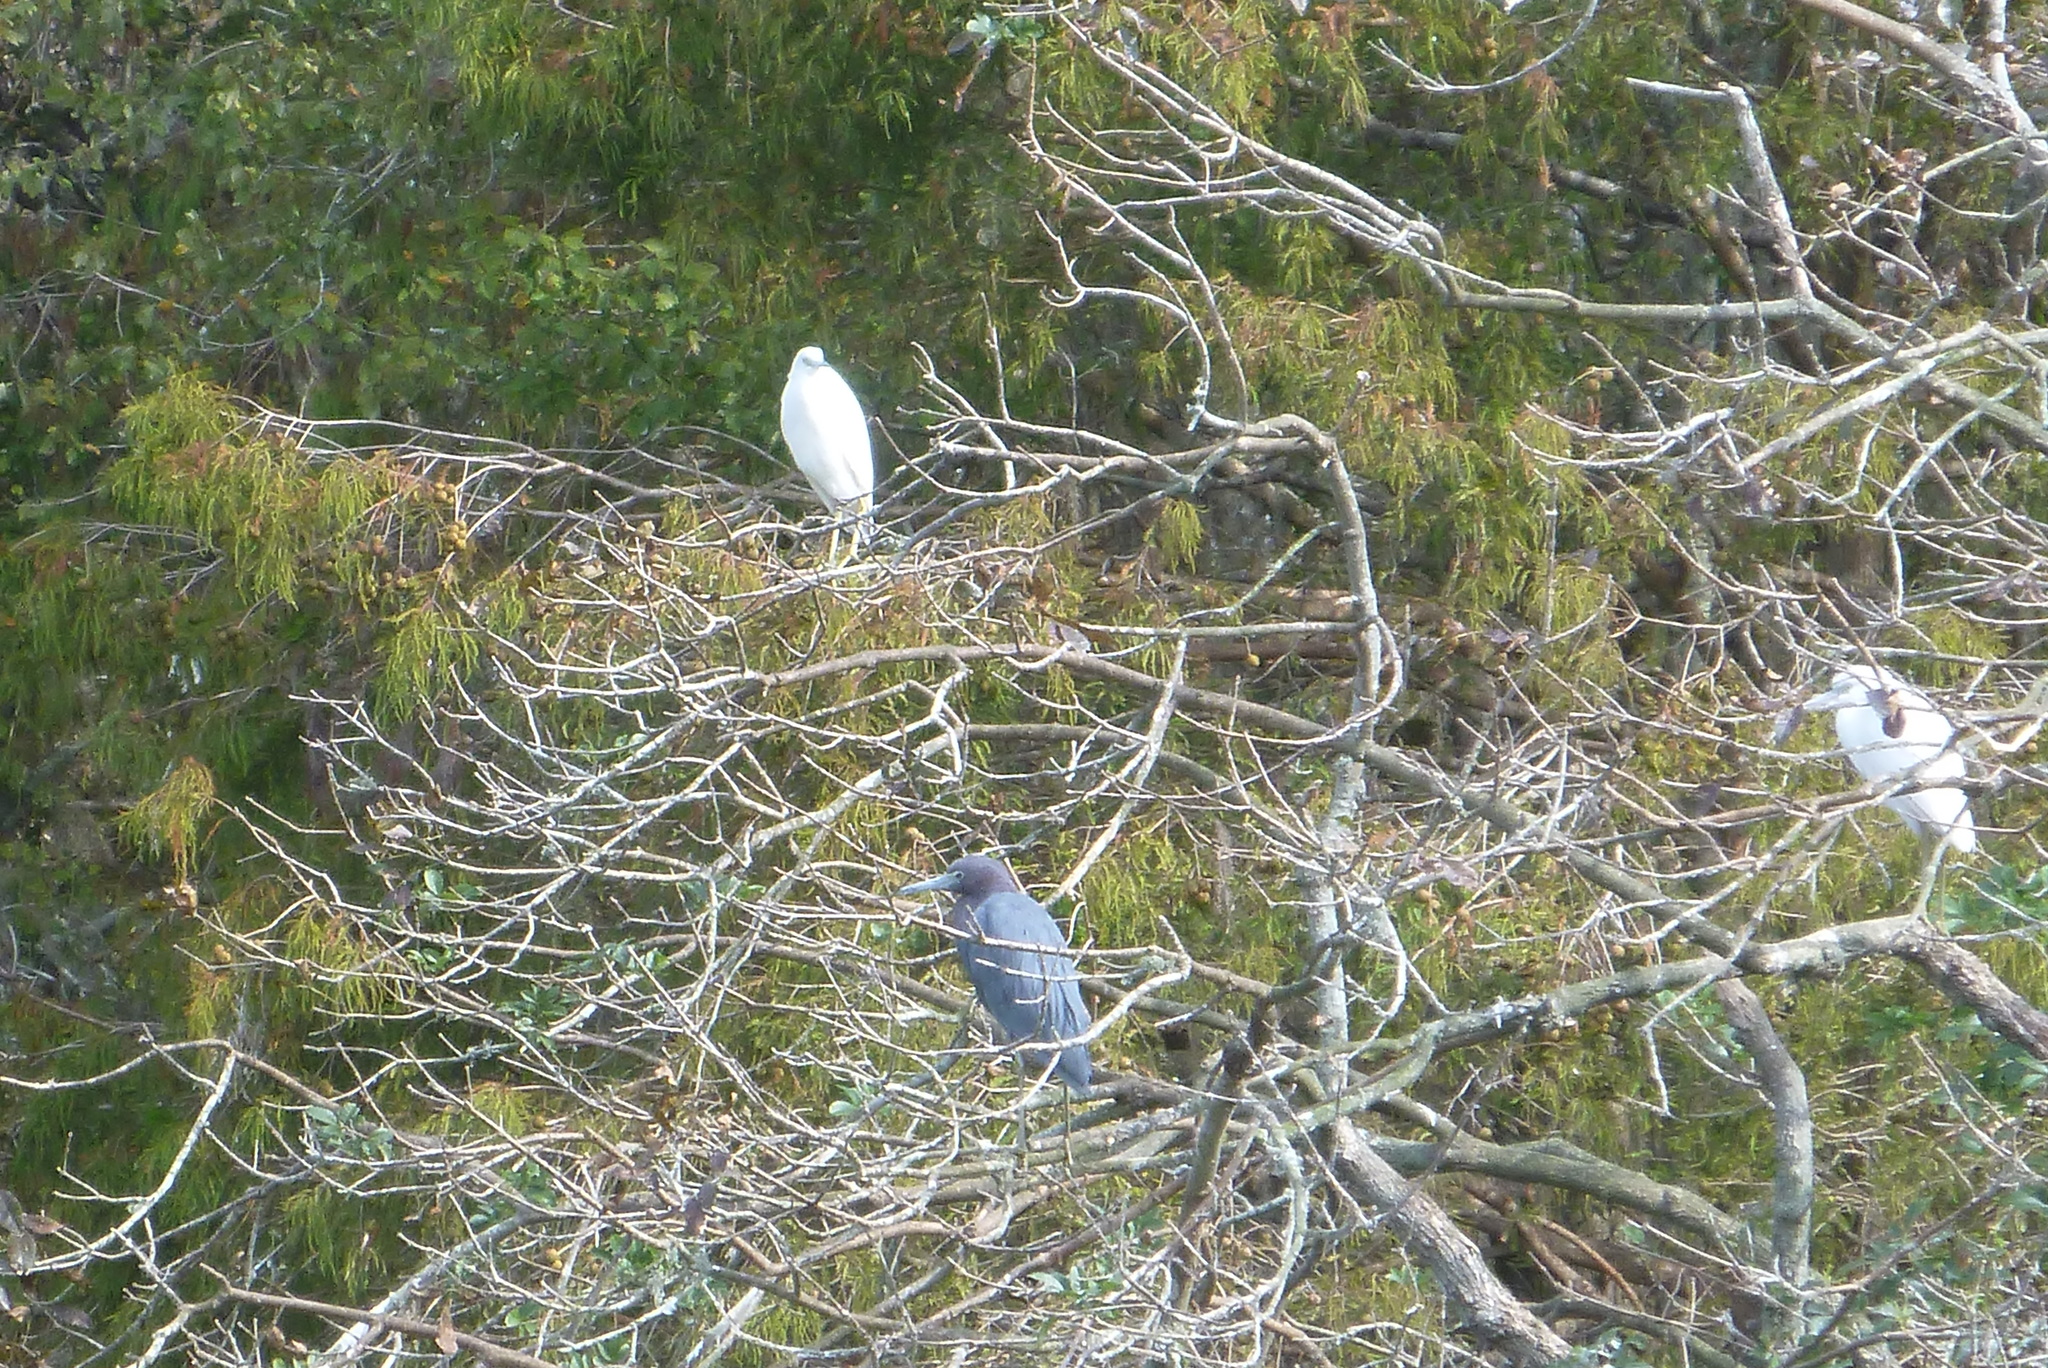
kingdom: Animalia
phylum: Chordata
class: Aves
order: Pelecaniformes
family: Ardeidae
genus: Egretta
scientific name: Egretta caerulea
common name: Little blue heron
